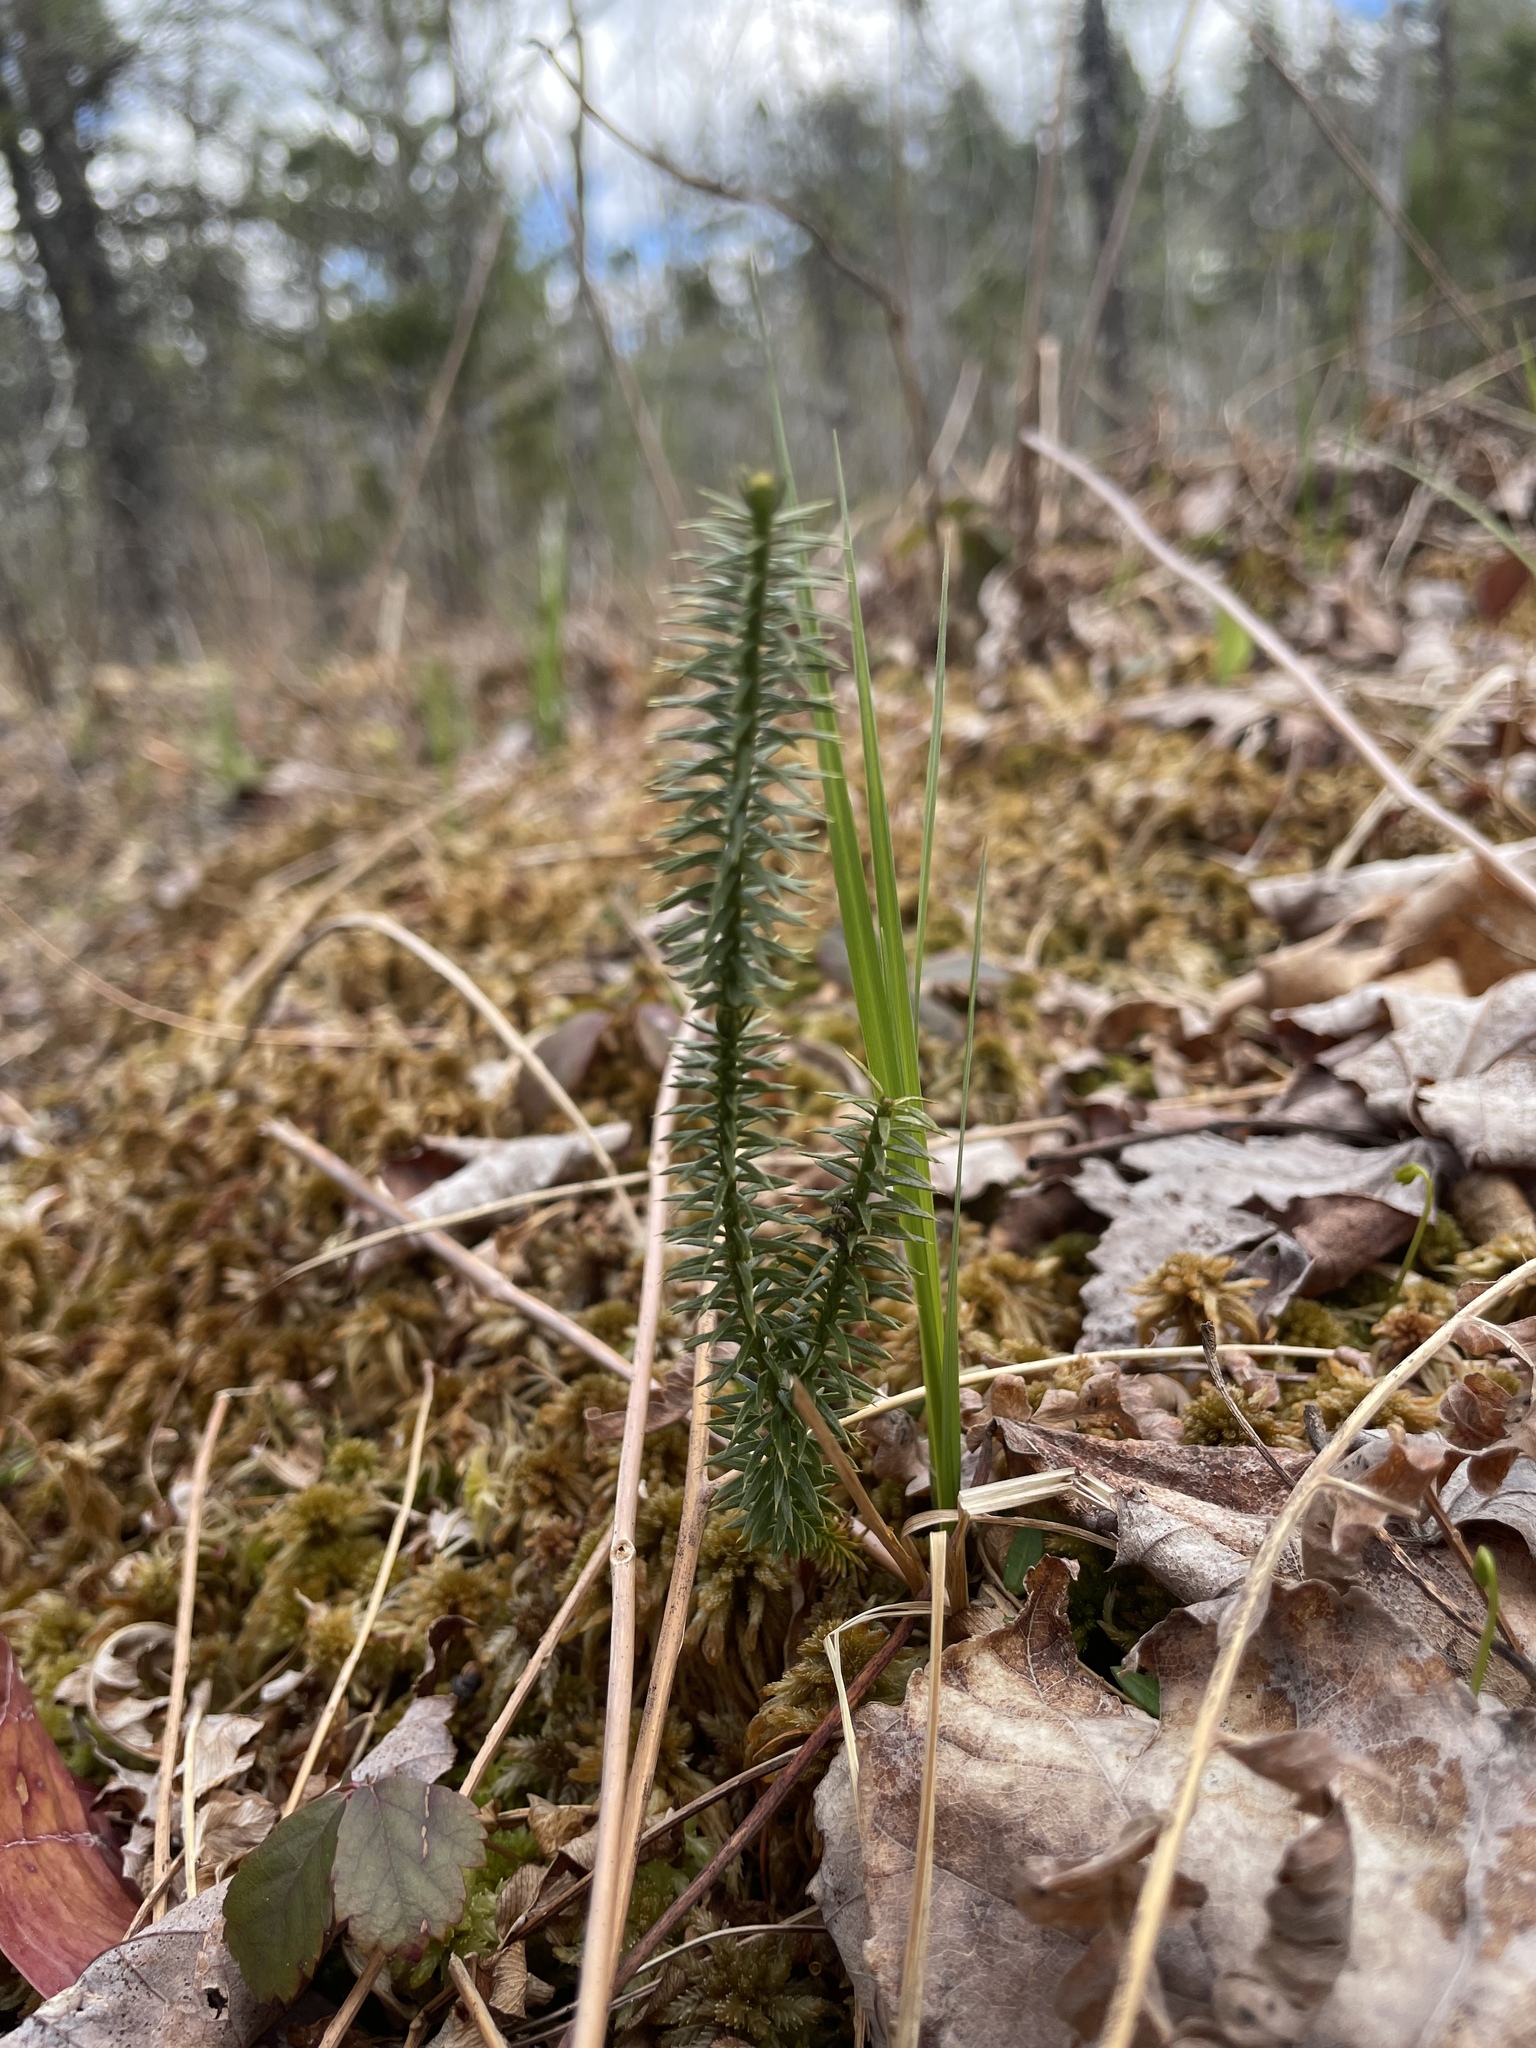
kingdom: Plantae
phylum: Tracheophyta
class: Lycopodiopsida
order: Lycopodiales
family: Lycopodiaceae
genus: Spinulum
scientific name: Spinulum annotinum
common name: Interrupted club-moss
